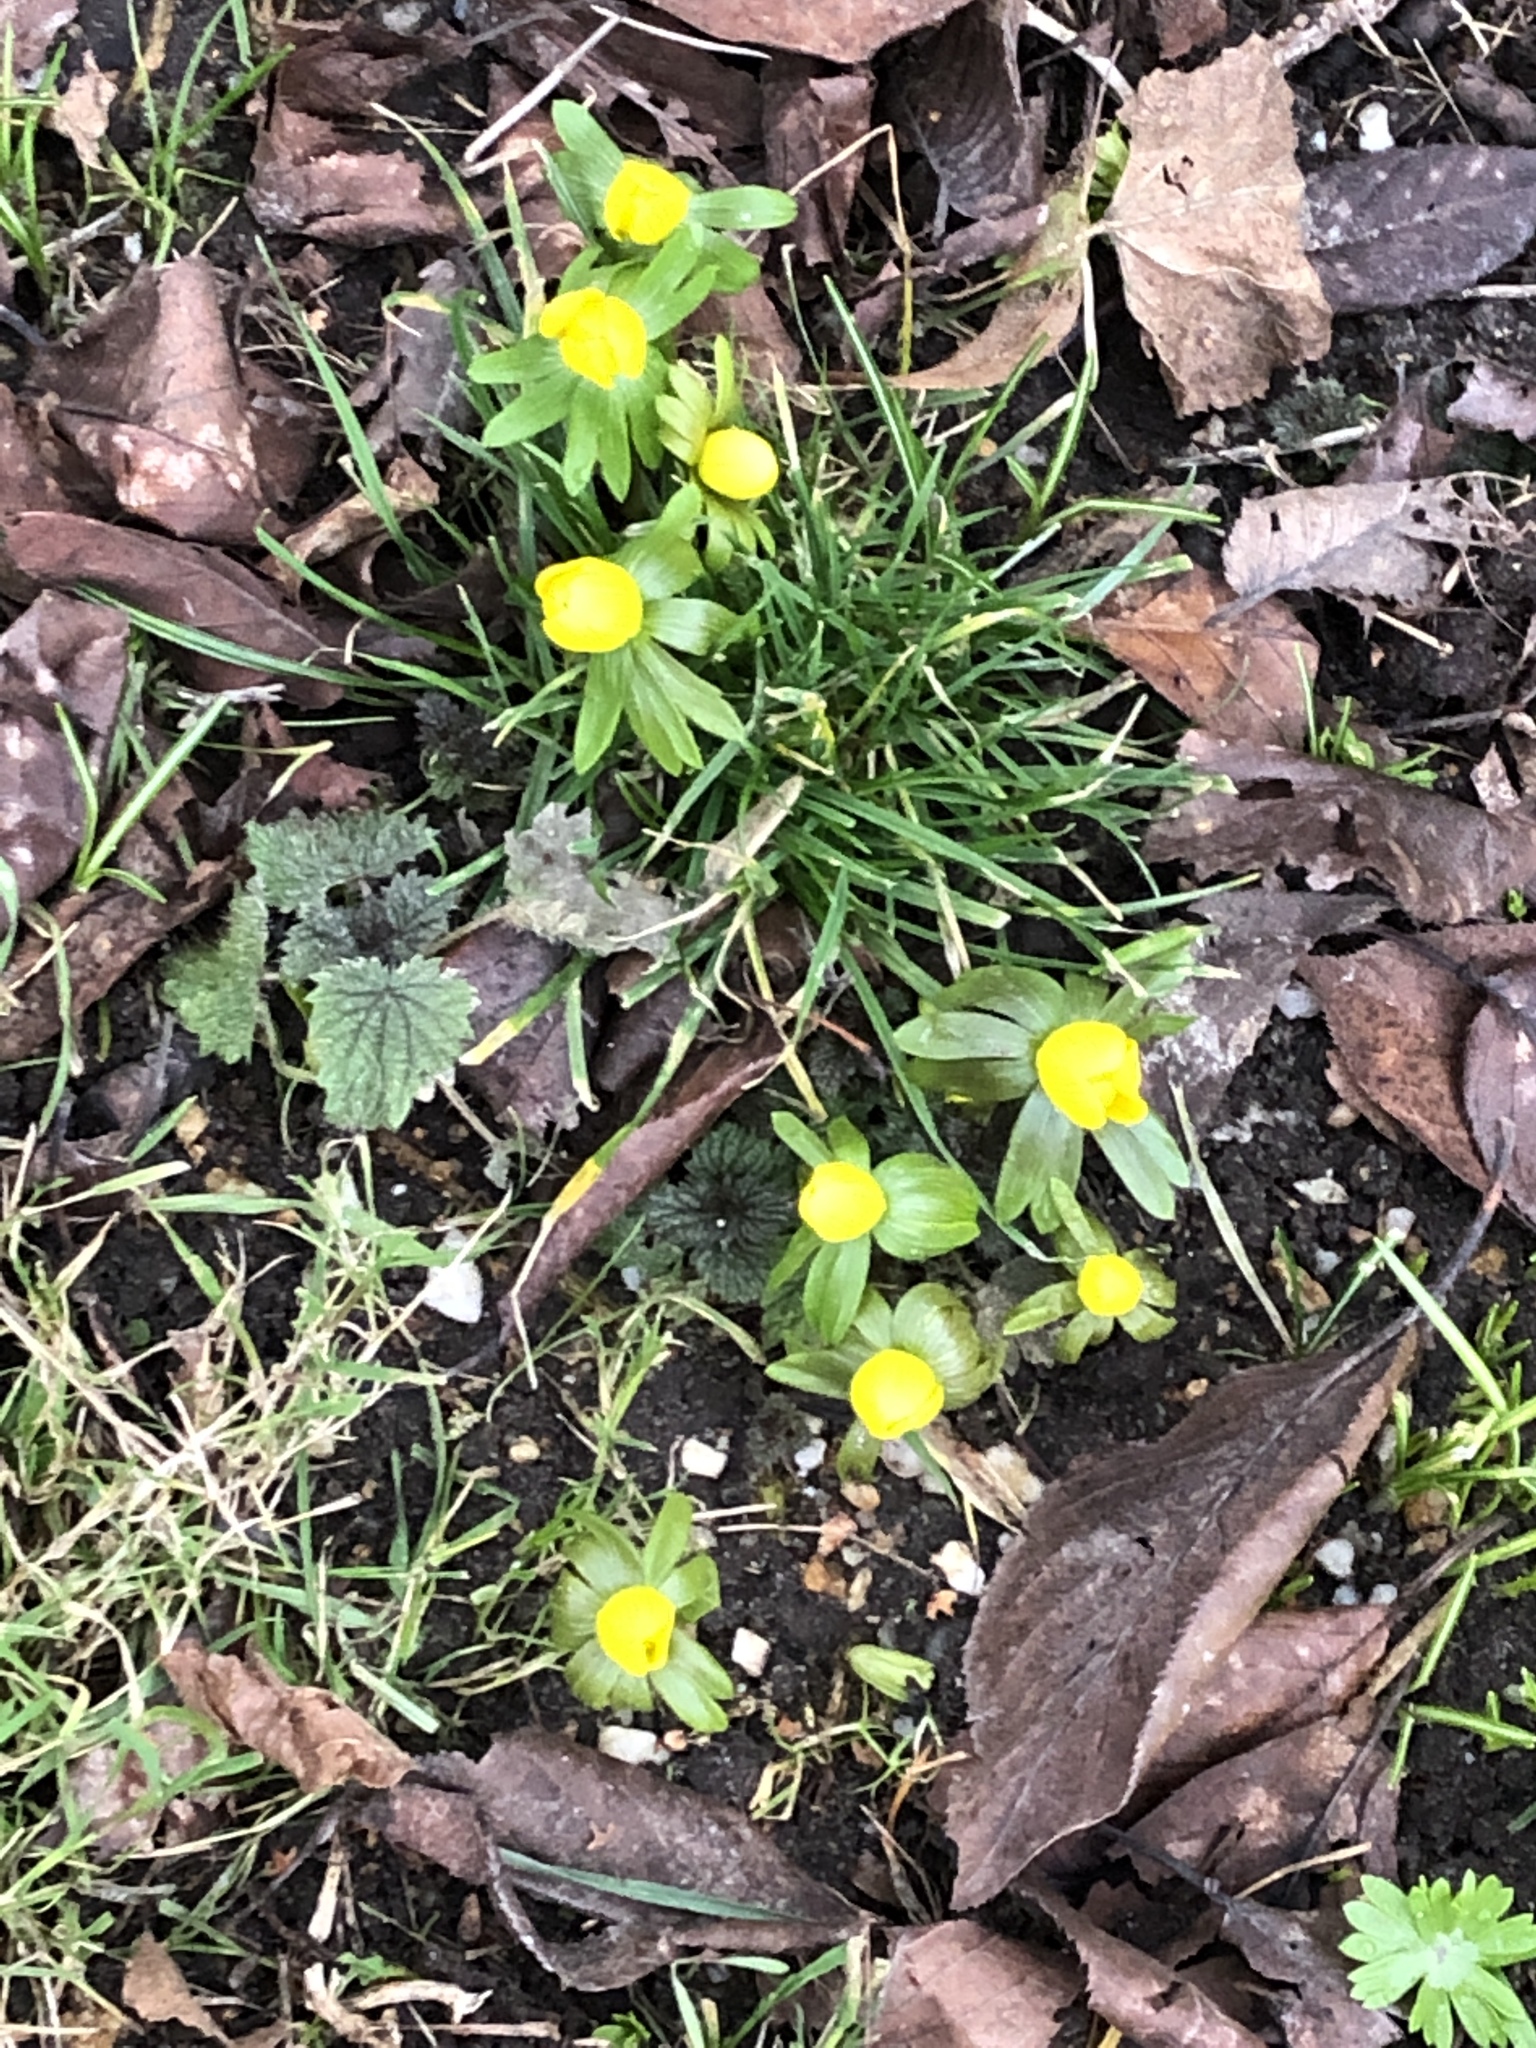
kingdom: Plantae
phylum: Tracheophyta
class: Magnoliopsida
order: Ranunculales
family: Ranunculaceae
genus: Eranthis
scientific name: Eranthis hyemalis
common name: Winter aconite
